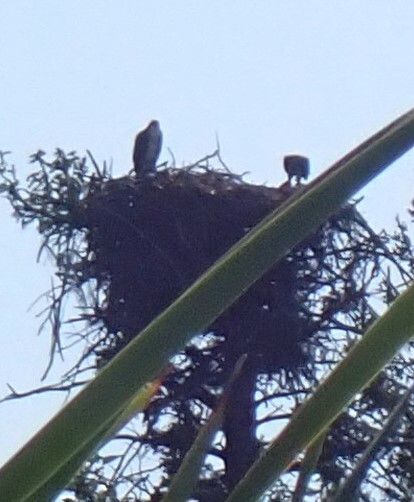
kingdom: Animalia
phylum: Chordata
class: Aves
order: Accipitriformes
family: Pandionidae
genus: Pandion
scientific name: Pandion haliaetus
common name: Osprey
